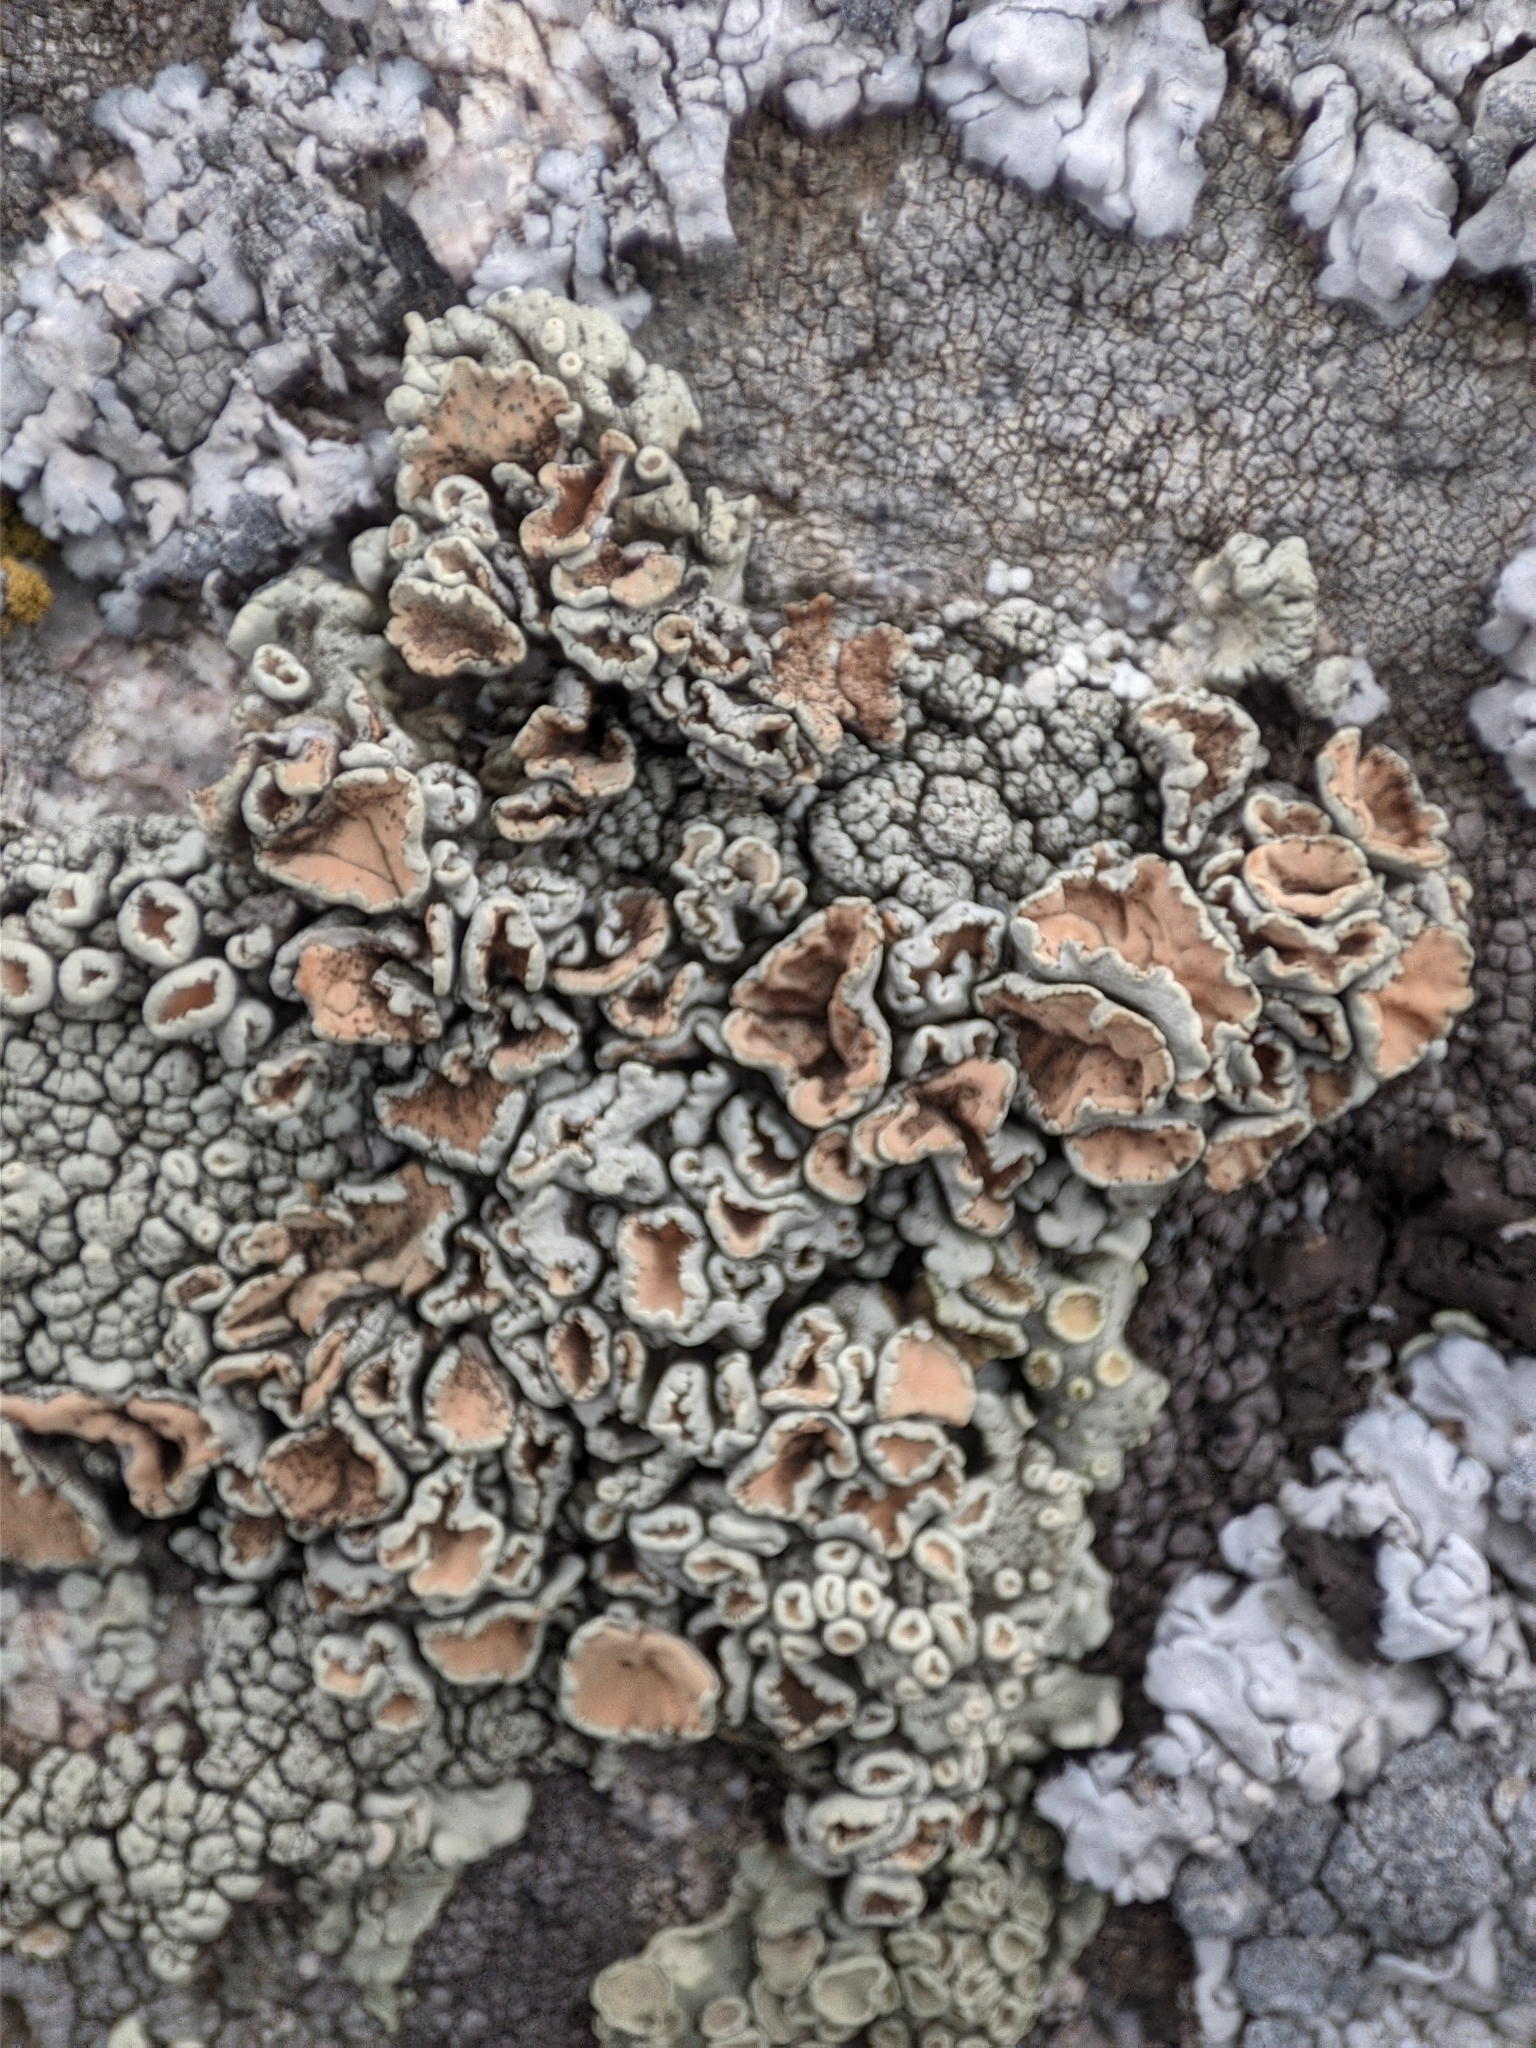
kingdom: Fungi
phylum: Ascomycota
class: Lecanoromycetes
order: Lecanorales
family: Lecanoraceae
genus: Omphalodina
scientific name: Omphalodina chrysoleuca
